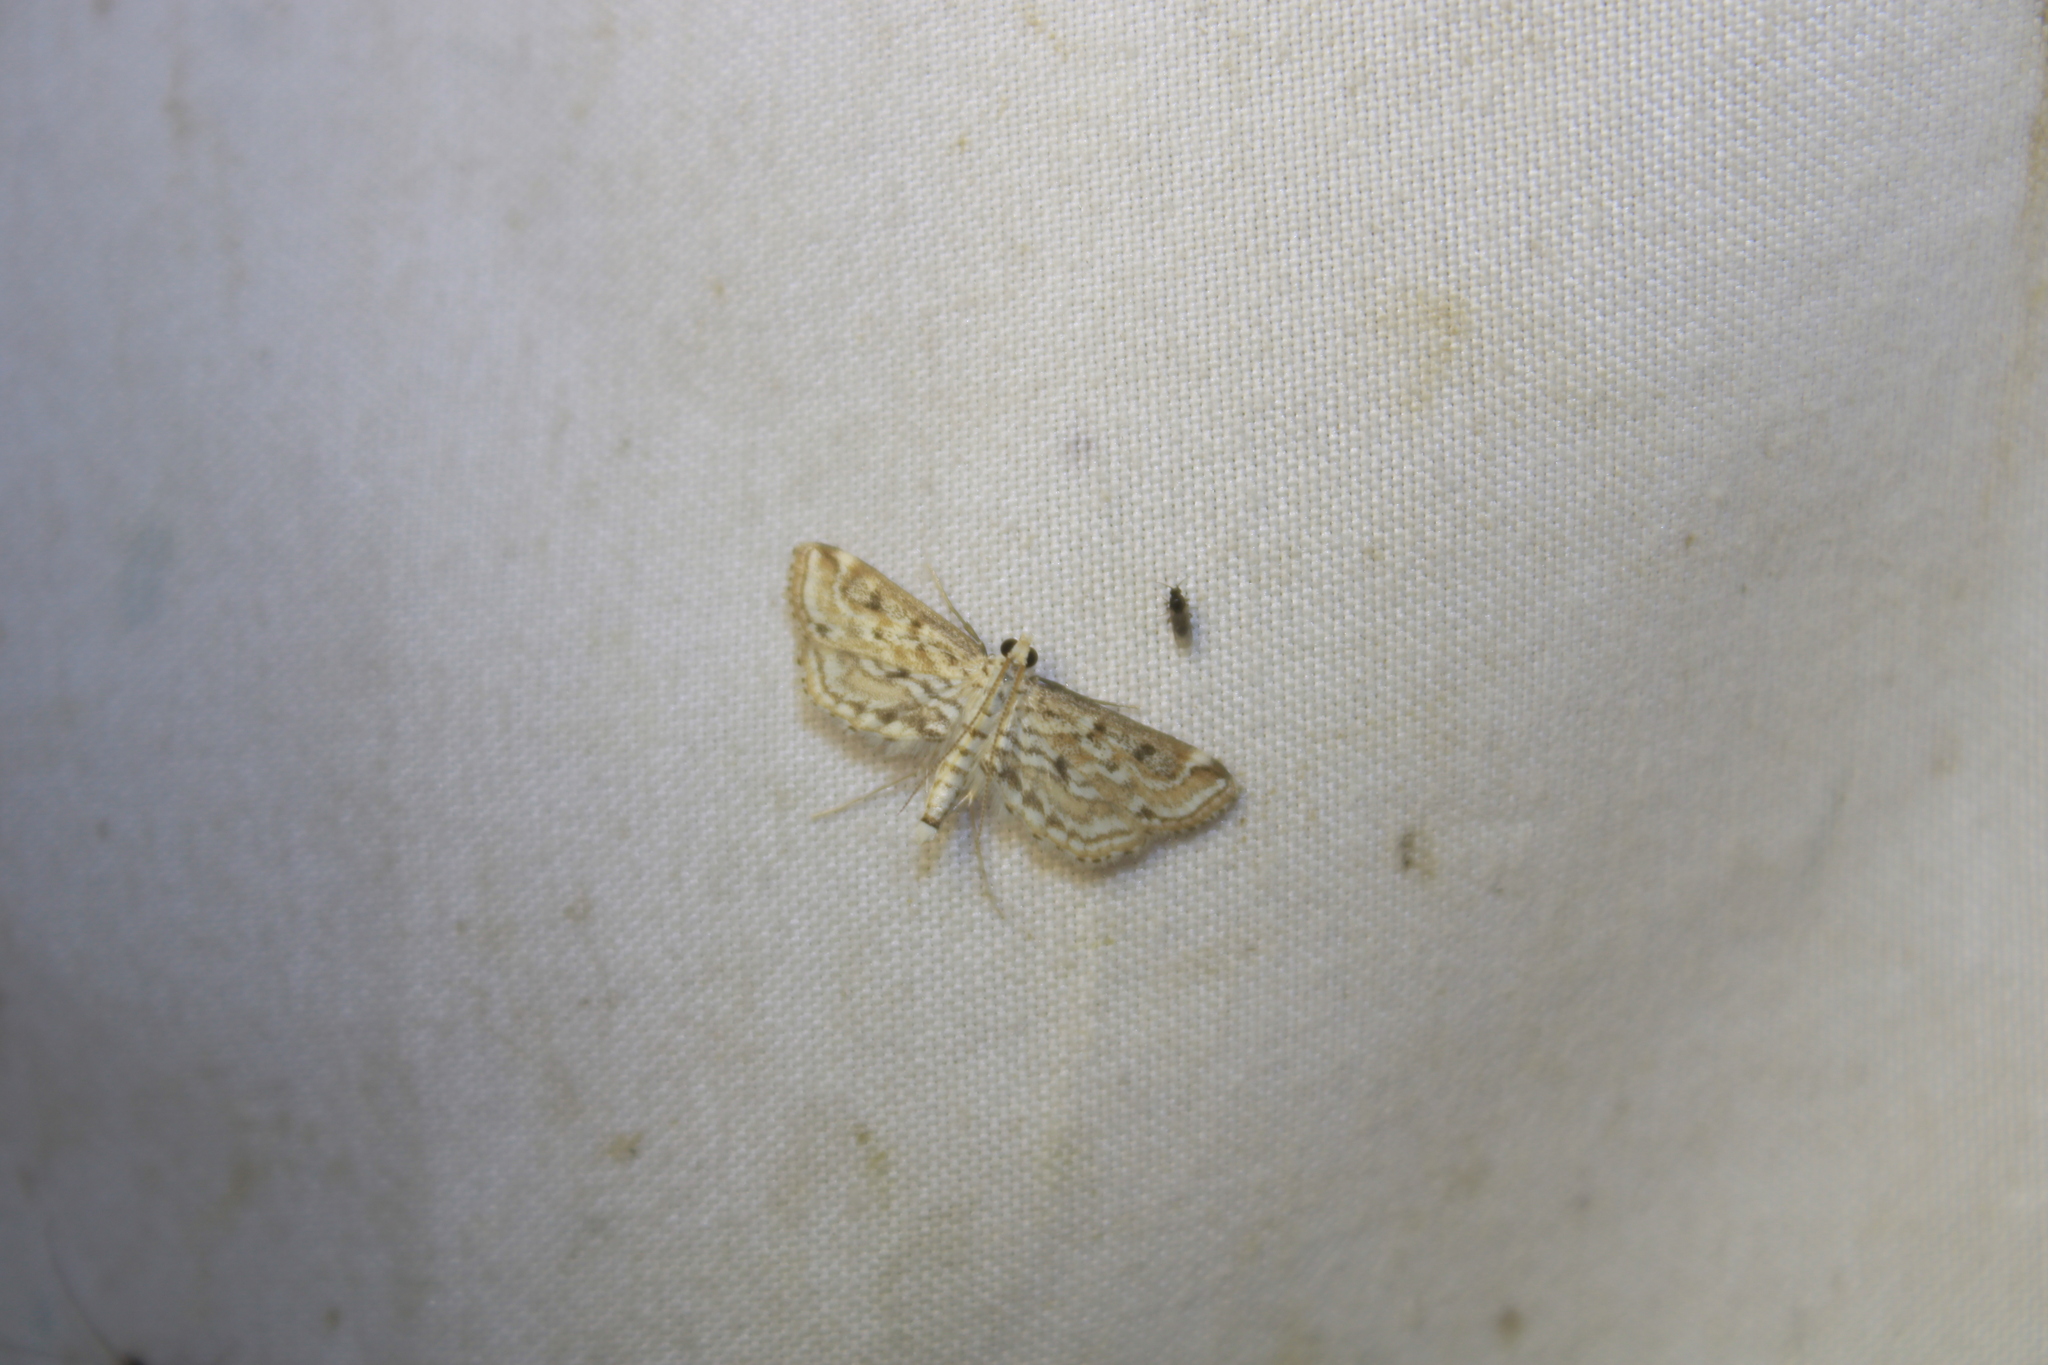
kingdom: Animalia
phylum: Arthropoda
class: Insecta
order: Lepidoptera
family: Crambidae
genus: Parapoynx
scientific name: Parapoynx allionealis
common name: Bladderwort casemaker
